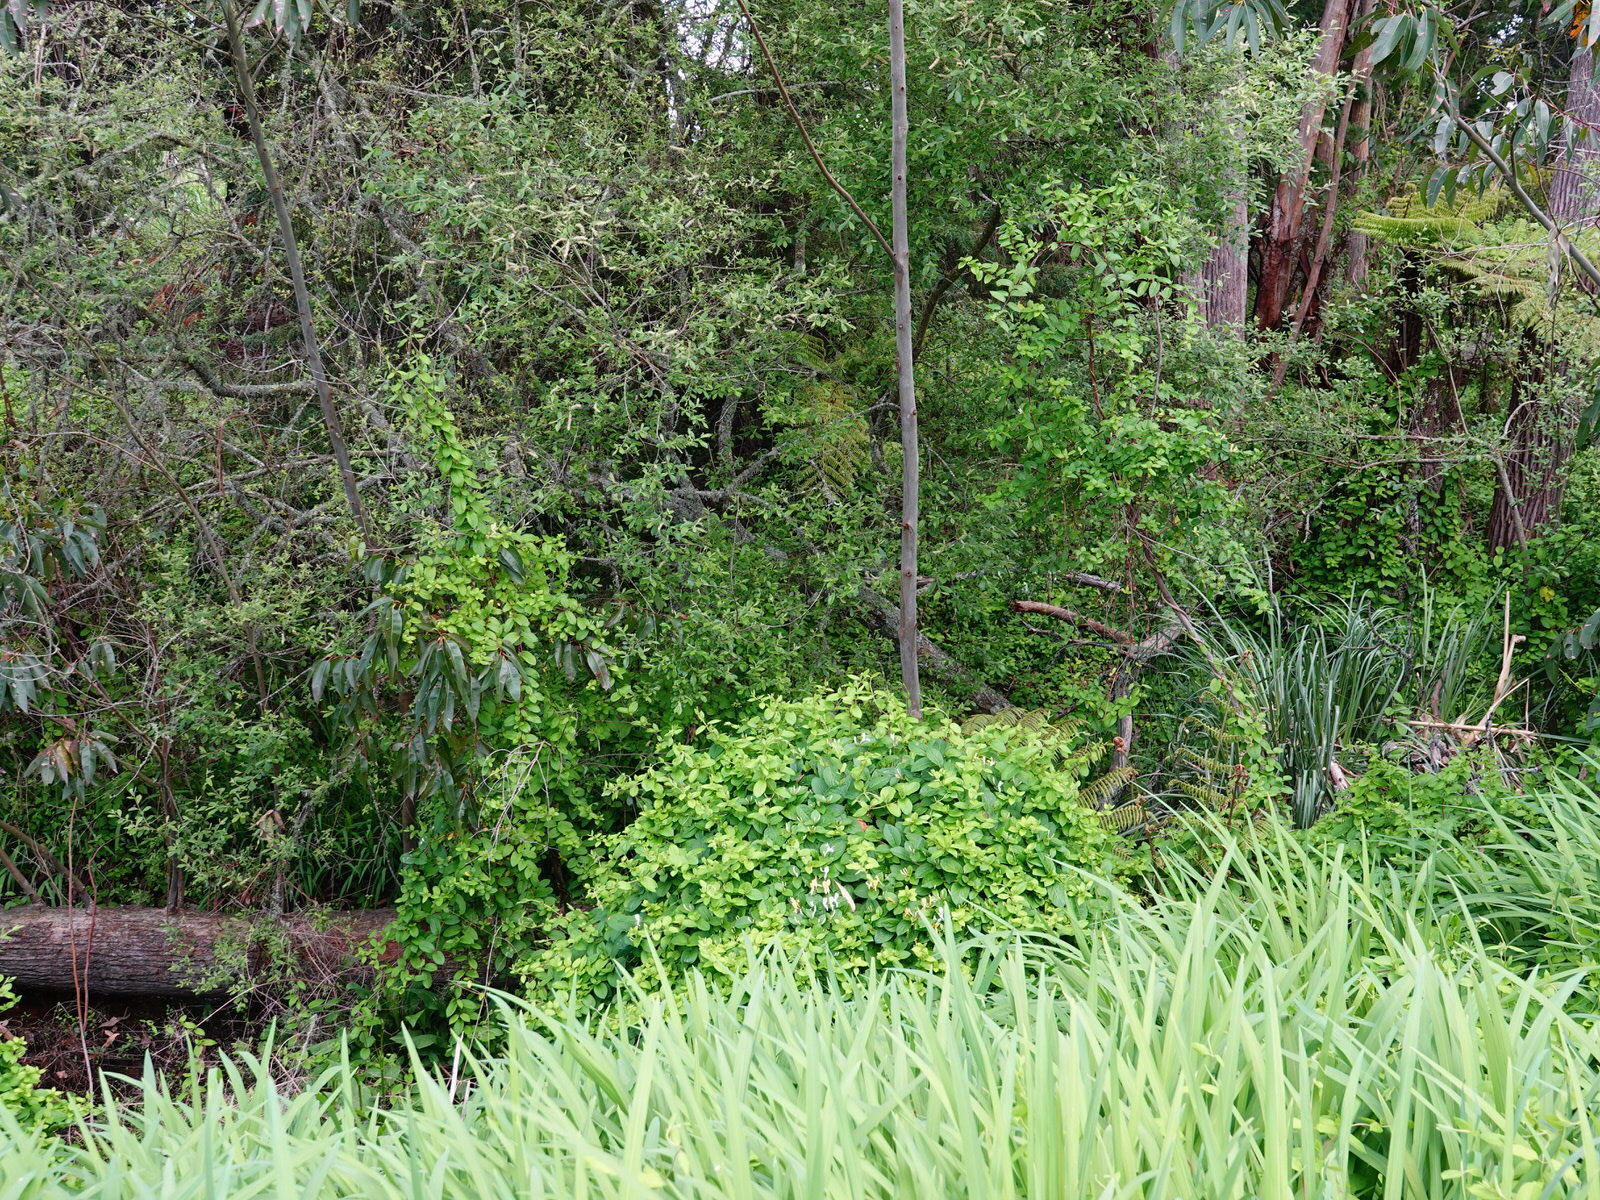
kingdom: Plantae
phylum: Tracheophyta
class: Magnoliopsida
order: Dipsacales
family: Caprifoliaceae
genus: Lonicera
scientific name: Lonicera japonica
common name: Japanese honeysuckle
